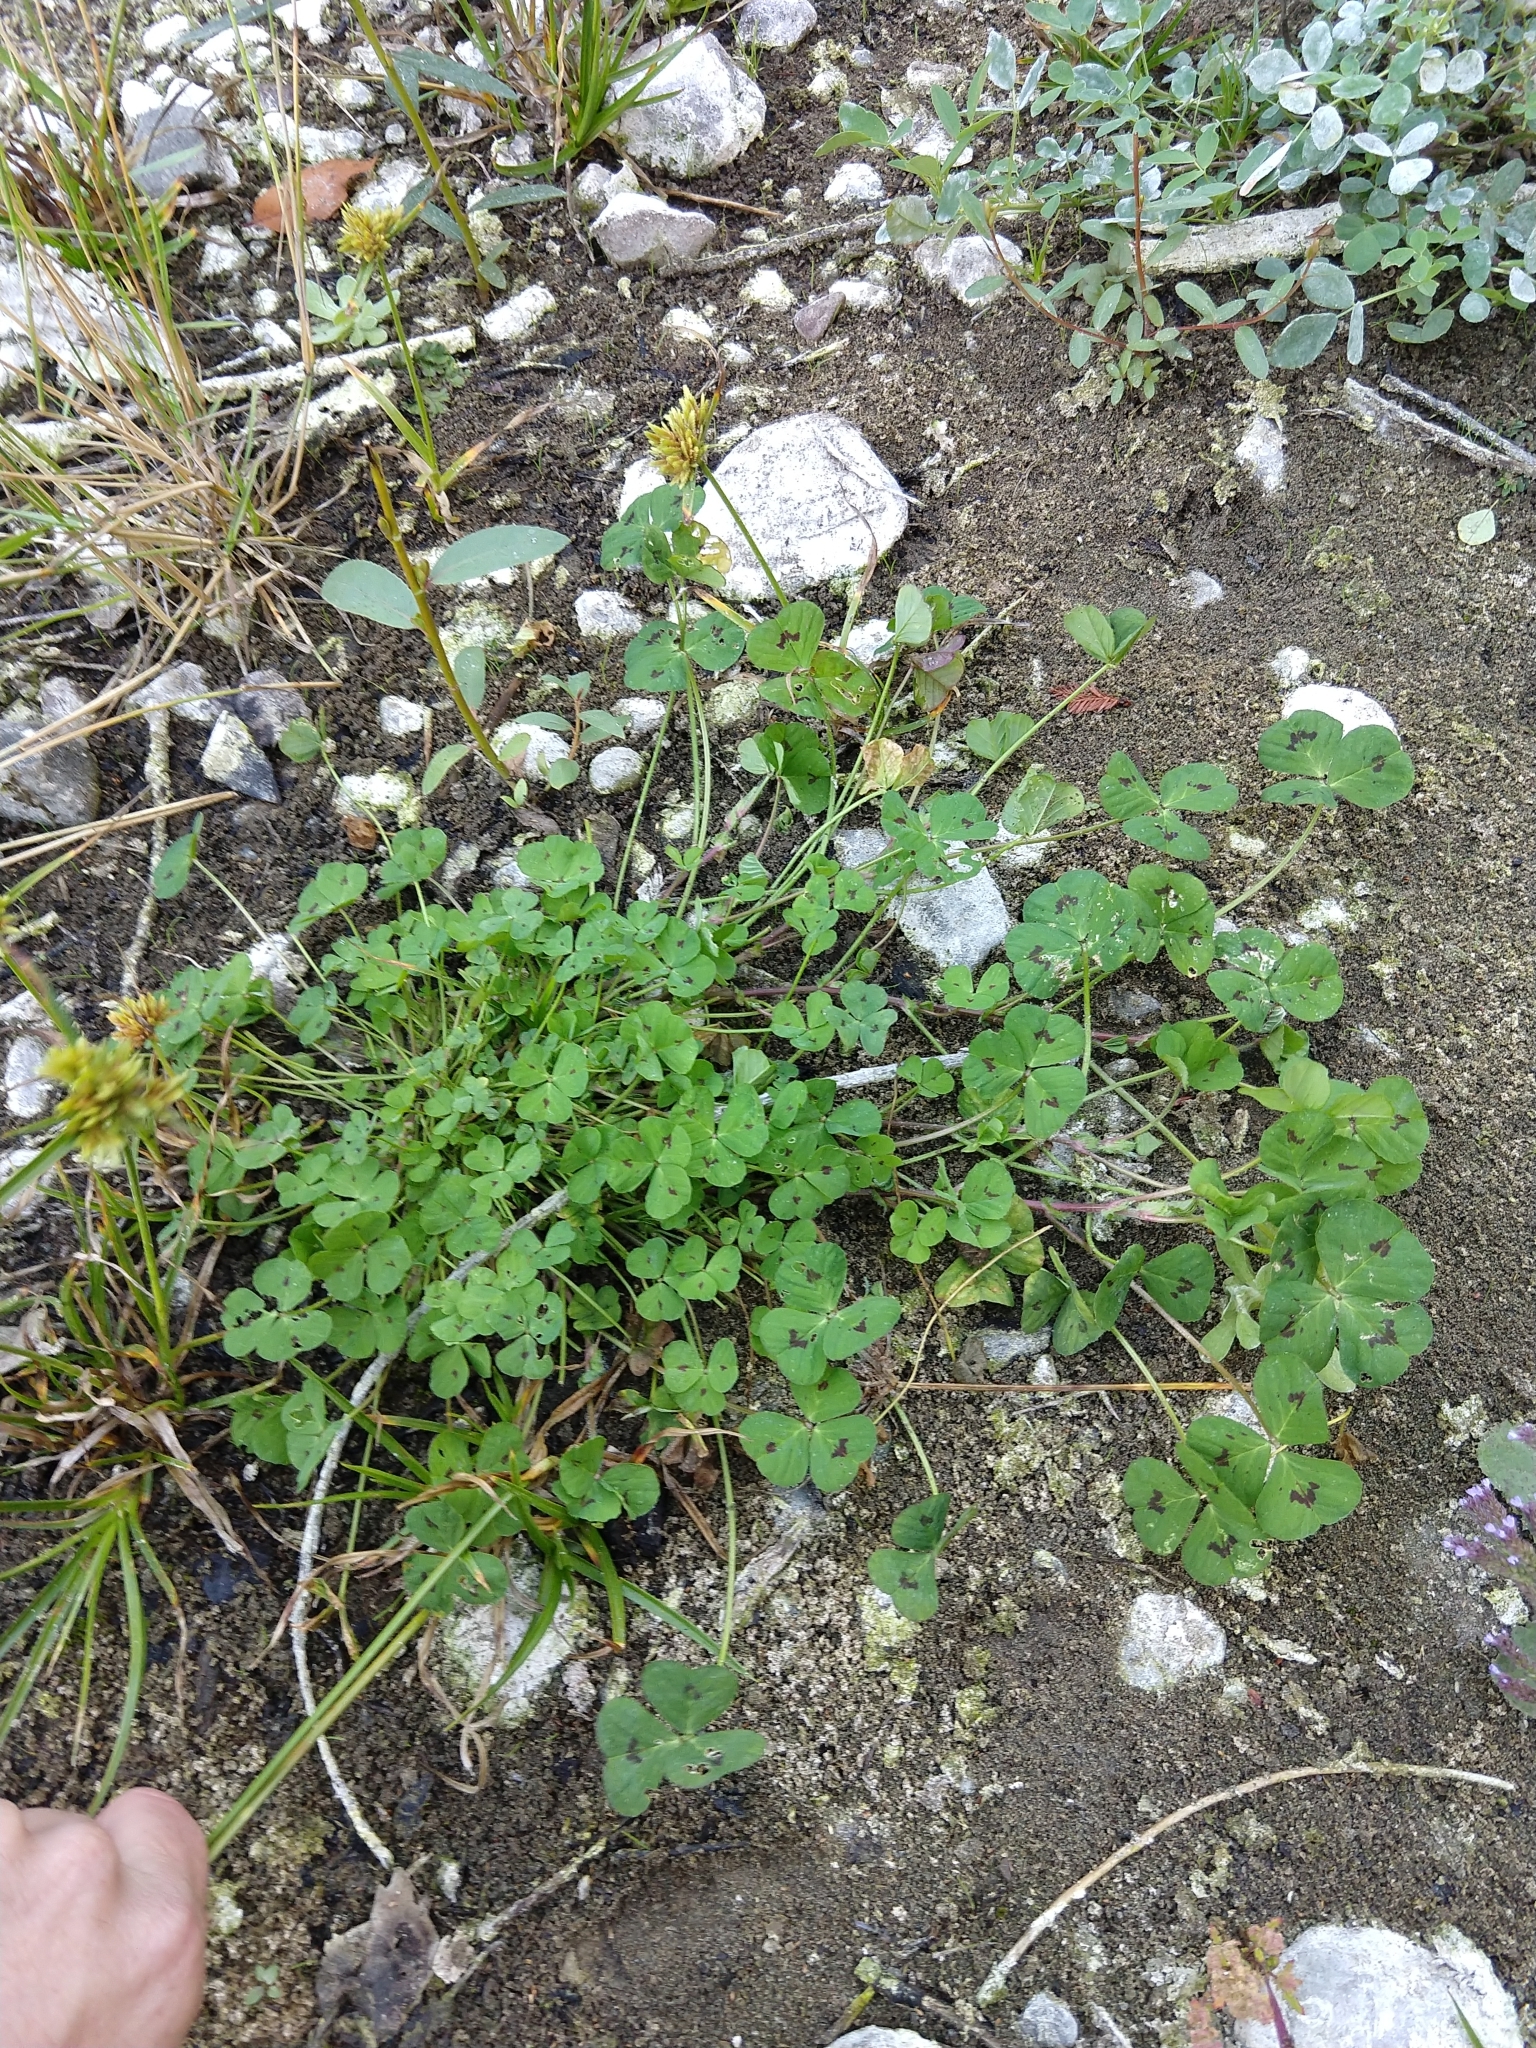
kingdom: Plantae
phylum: Tracheophyta
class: Magnoliopsida
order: Fabales
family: Fabaceae
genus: Medicago
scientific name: Medicago arabica
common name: Spotted medick
